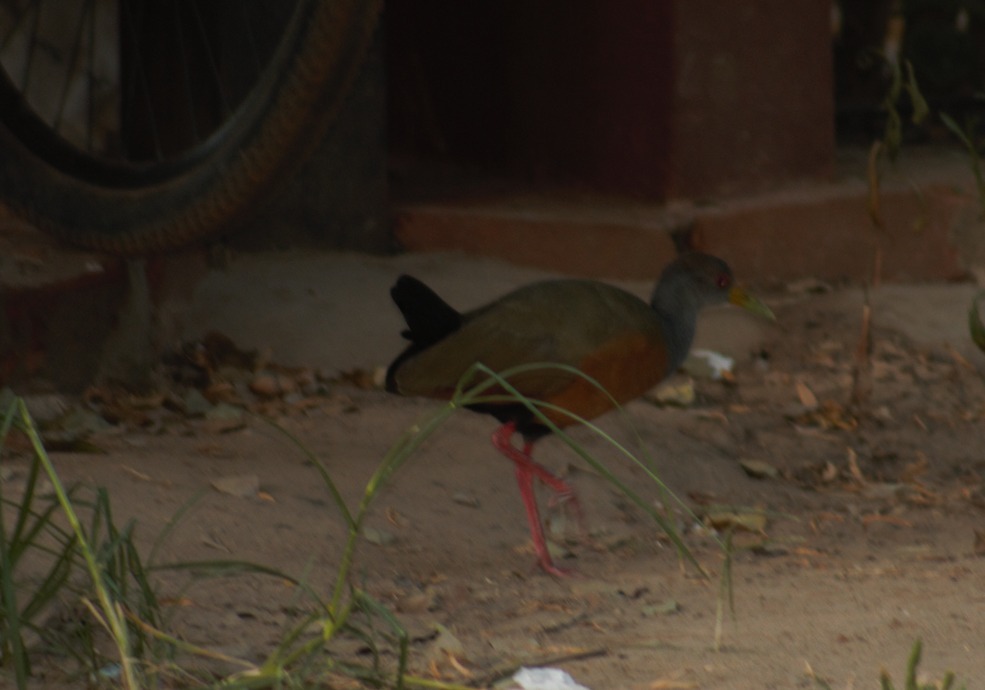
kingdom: Animalia
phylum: Chordata
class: Aves
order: Gruiformes
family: Rallidae
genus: Aramides
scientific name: Aramides cajanea
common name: Gray-necked wood-rail
